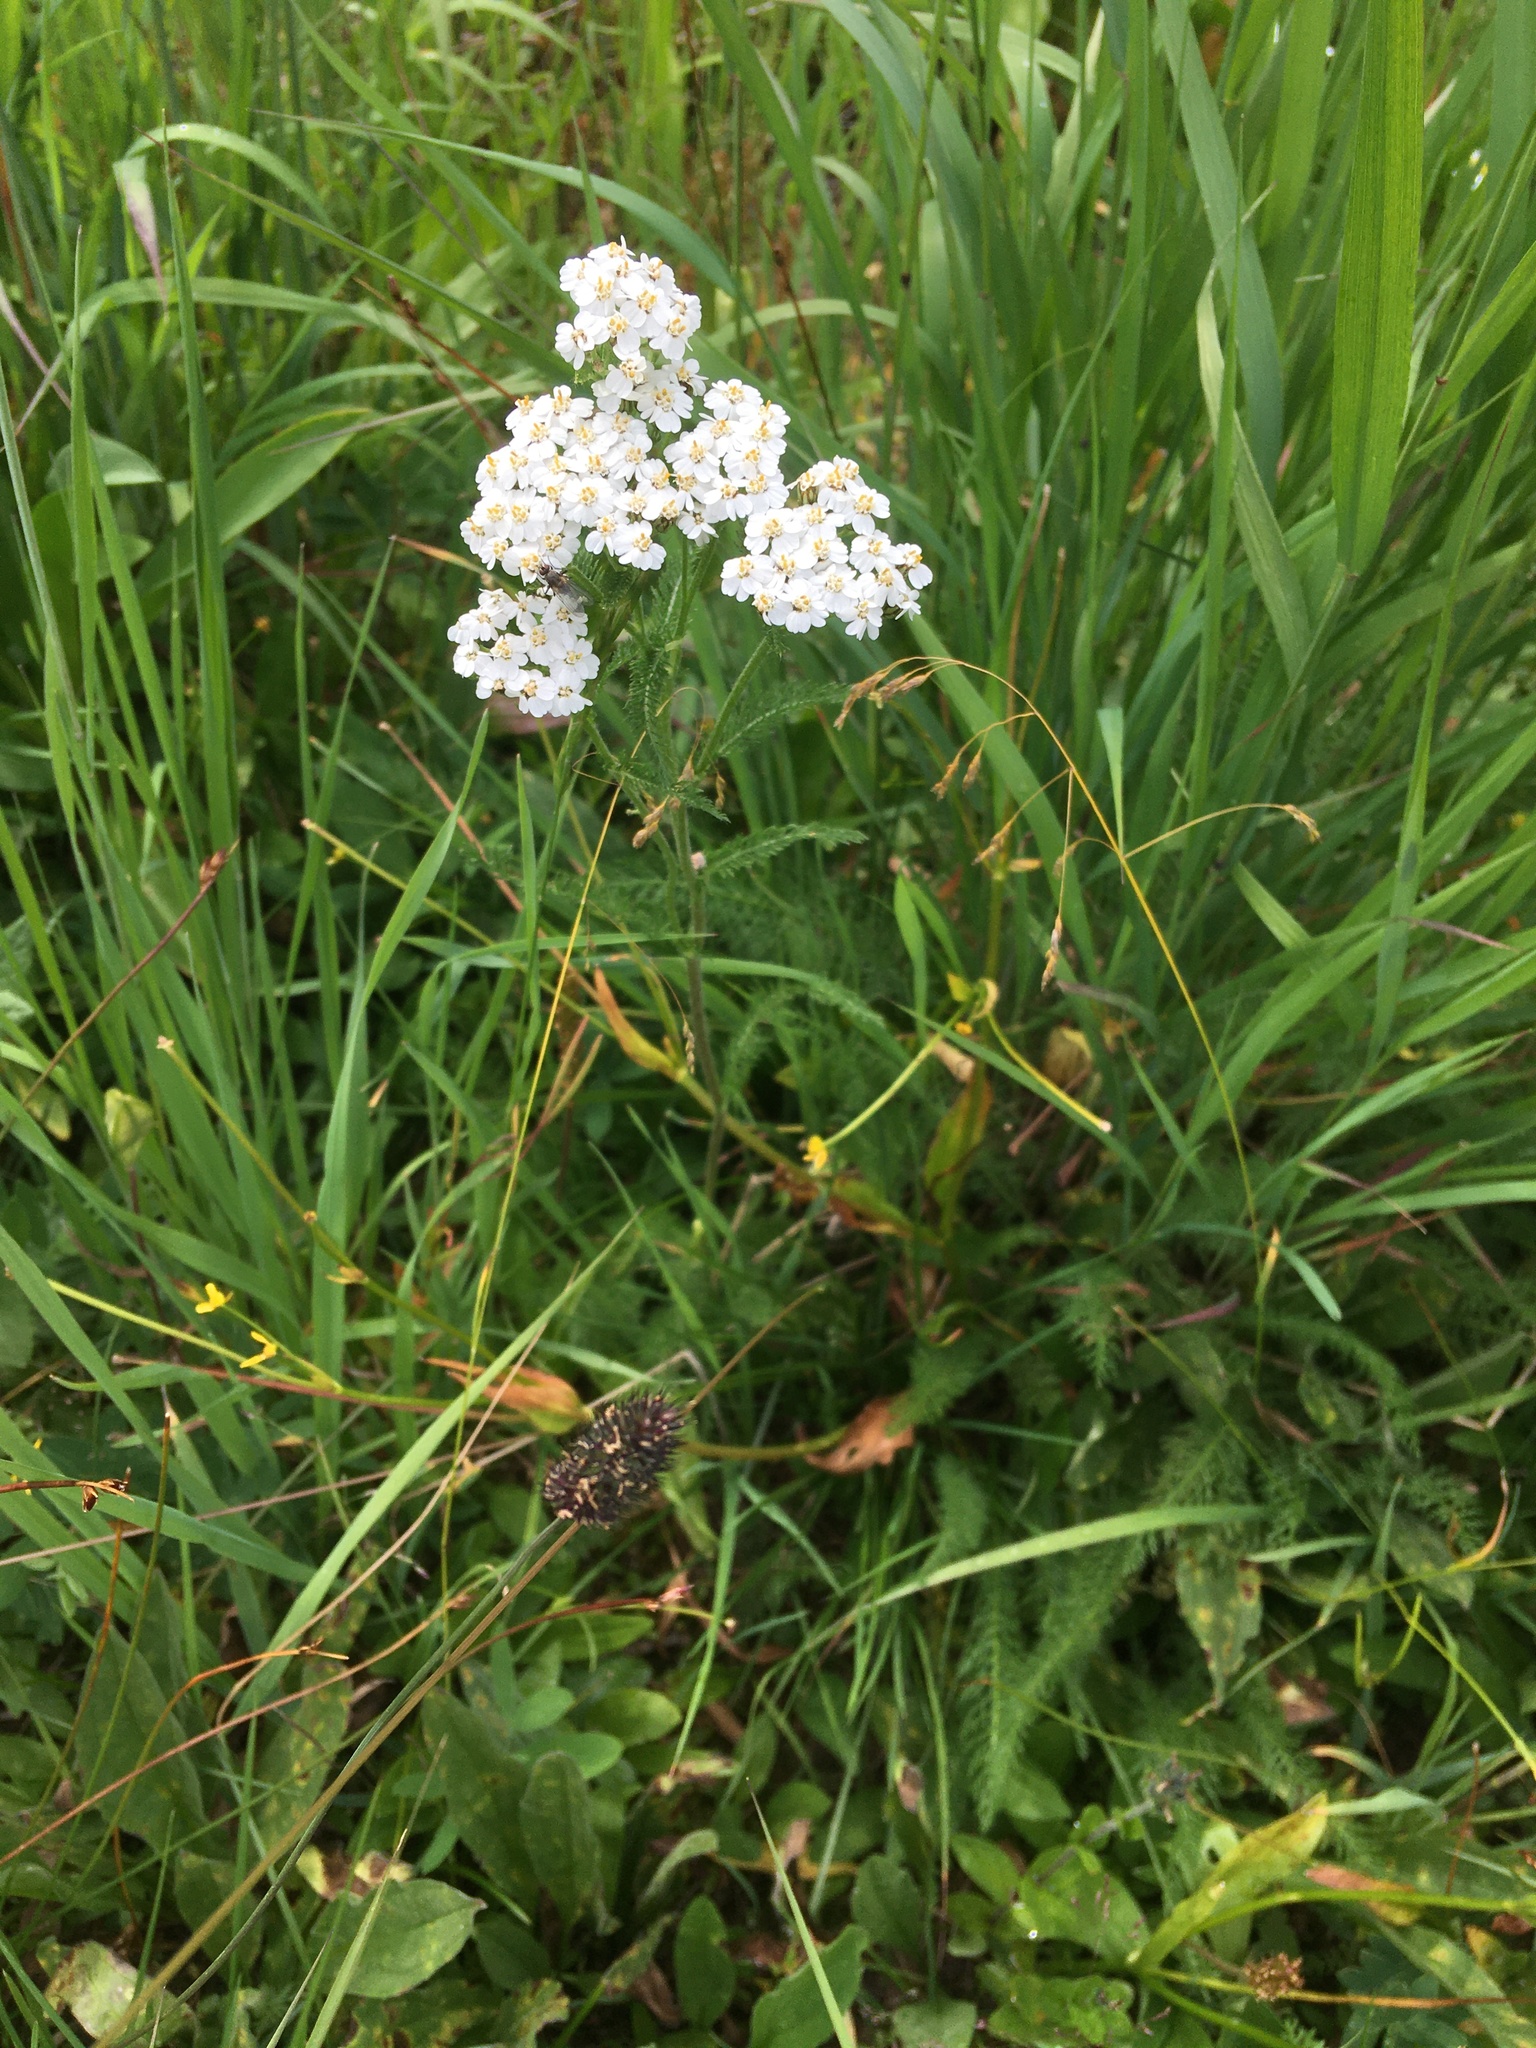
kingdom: Plantae
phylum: Tracheophyta
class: Magnoliopsida
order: Asterales
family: Asteraceae
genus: Achillea
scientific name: Achillea millefolium
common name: Yarrow
